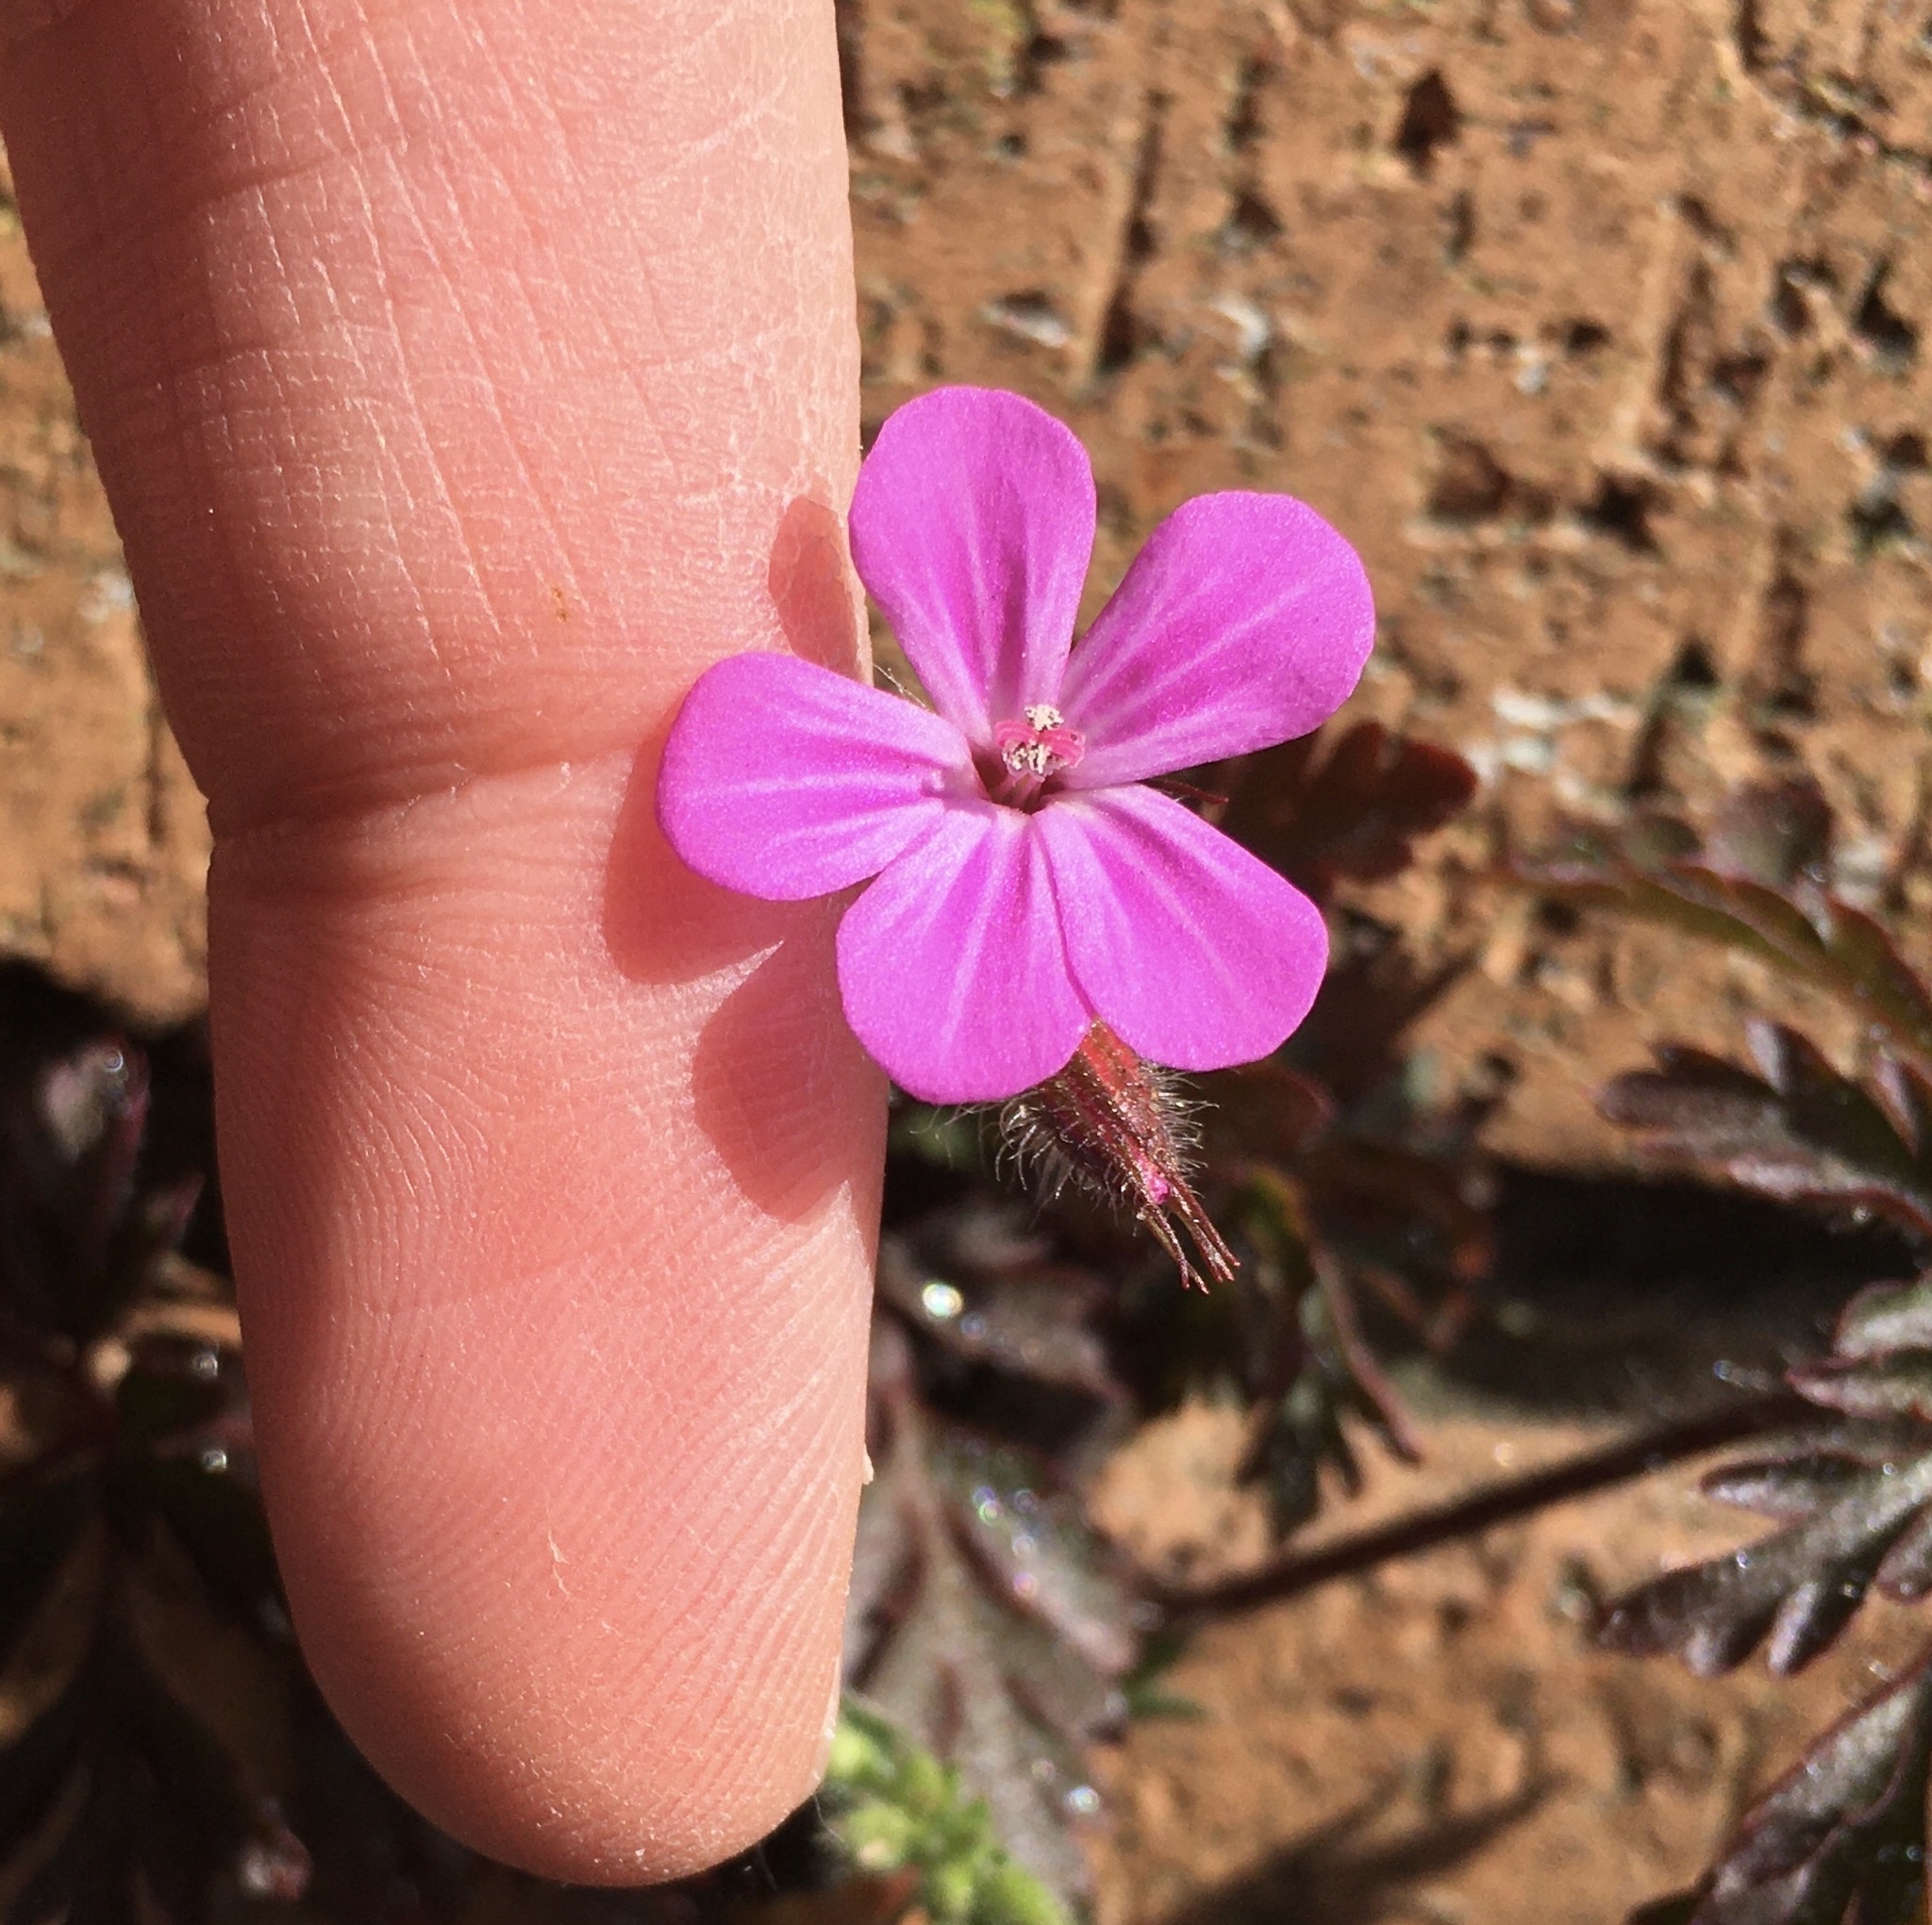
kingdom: Plantae
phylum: Tracheophyta
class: Magnoliopsida
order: Geraniales
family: Geraniaceae
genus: Geranium
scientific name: Geranium robertianum
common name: Herb-robert
